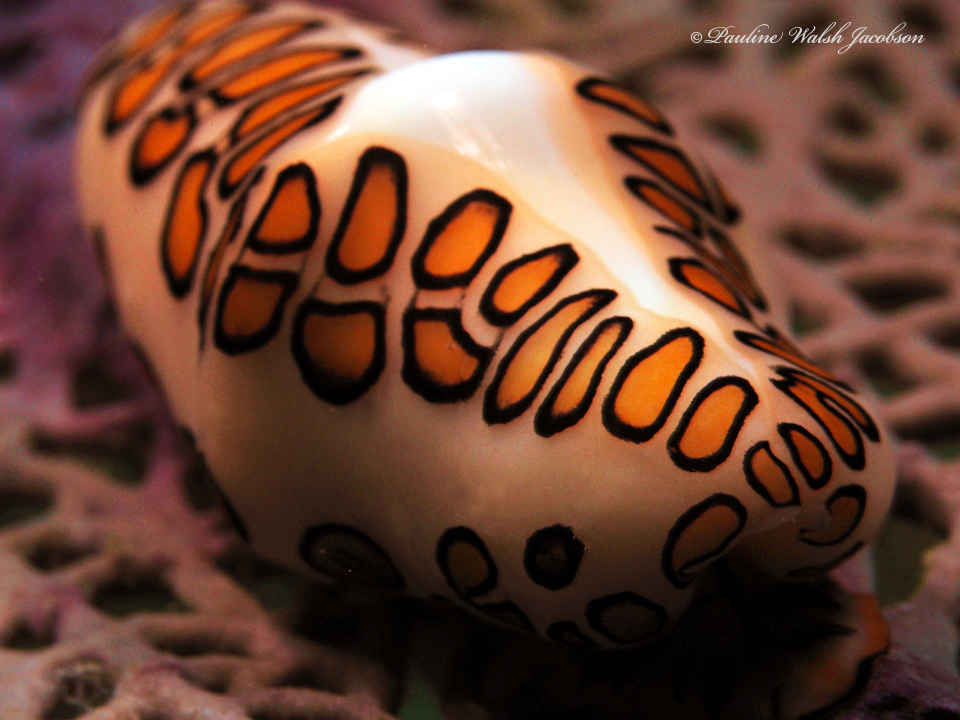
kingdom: Animalia
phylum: Mollusca
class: Gastropoda
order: Littorinimorpha
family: Ovulidae
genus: Cyphoma
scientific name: Cyphoma gibbosum
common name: Flamingo tongue
